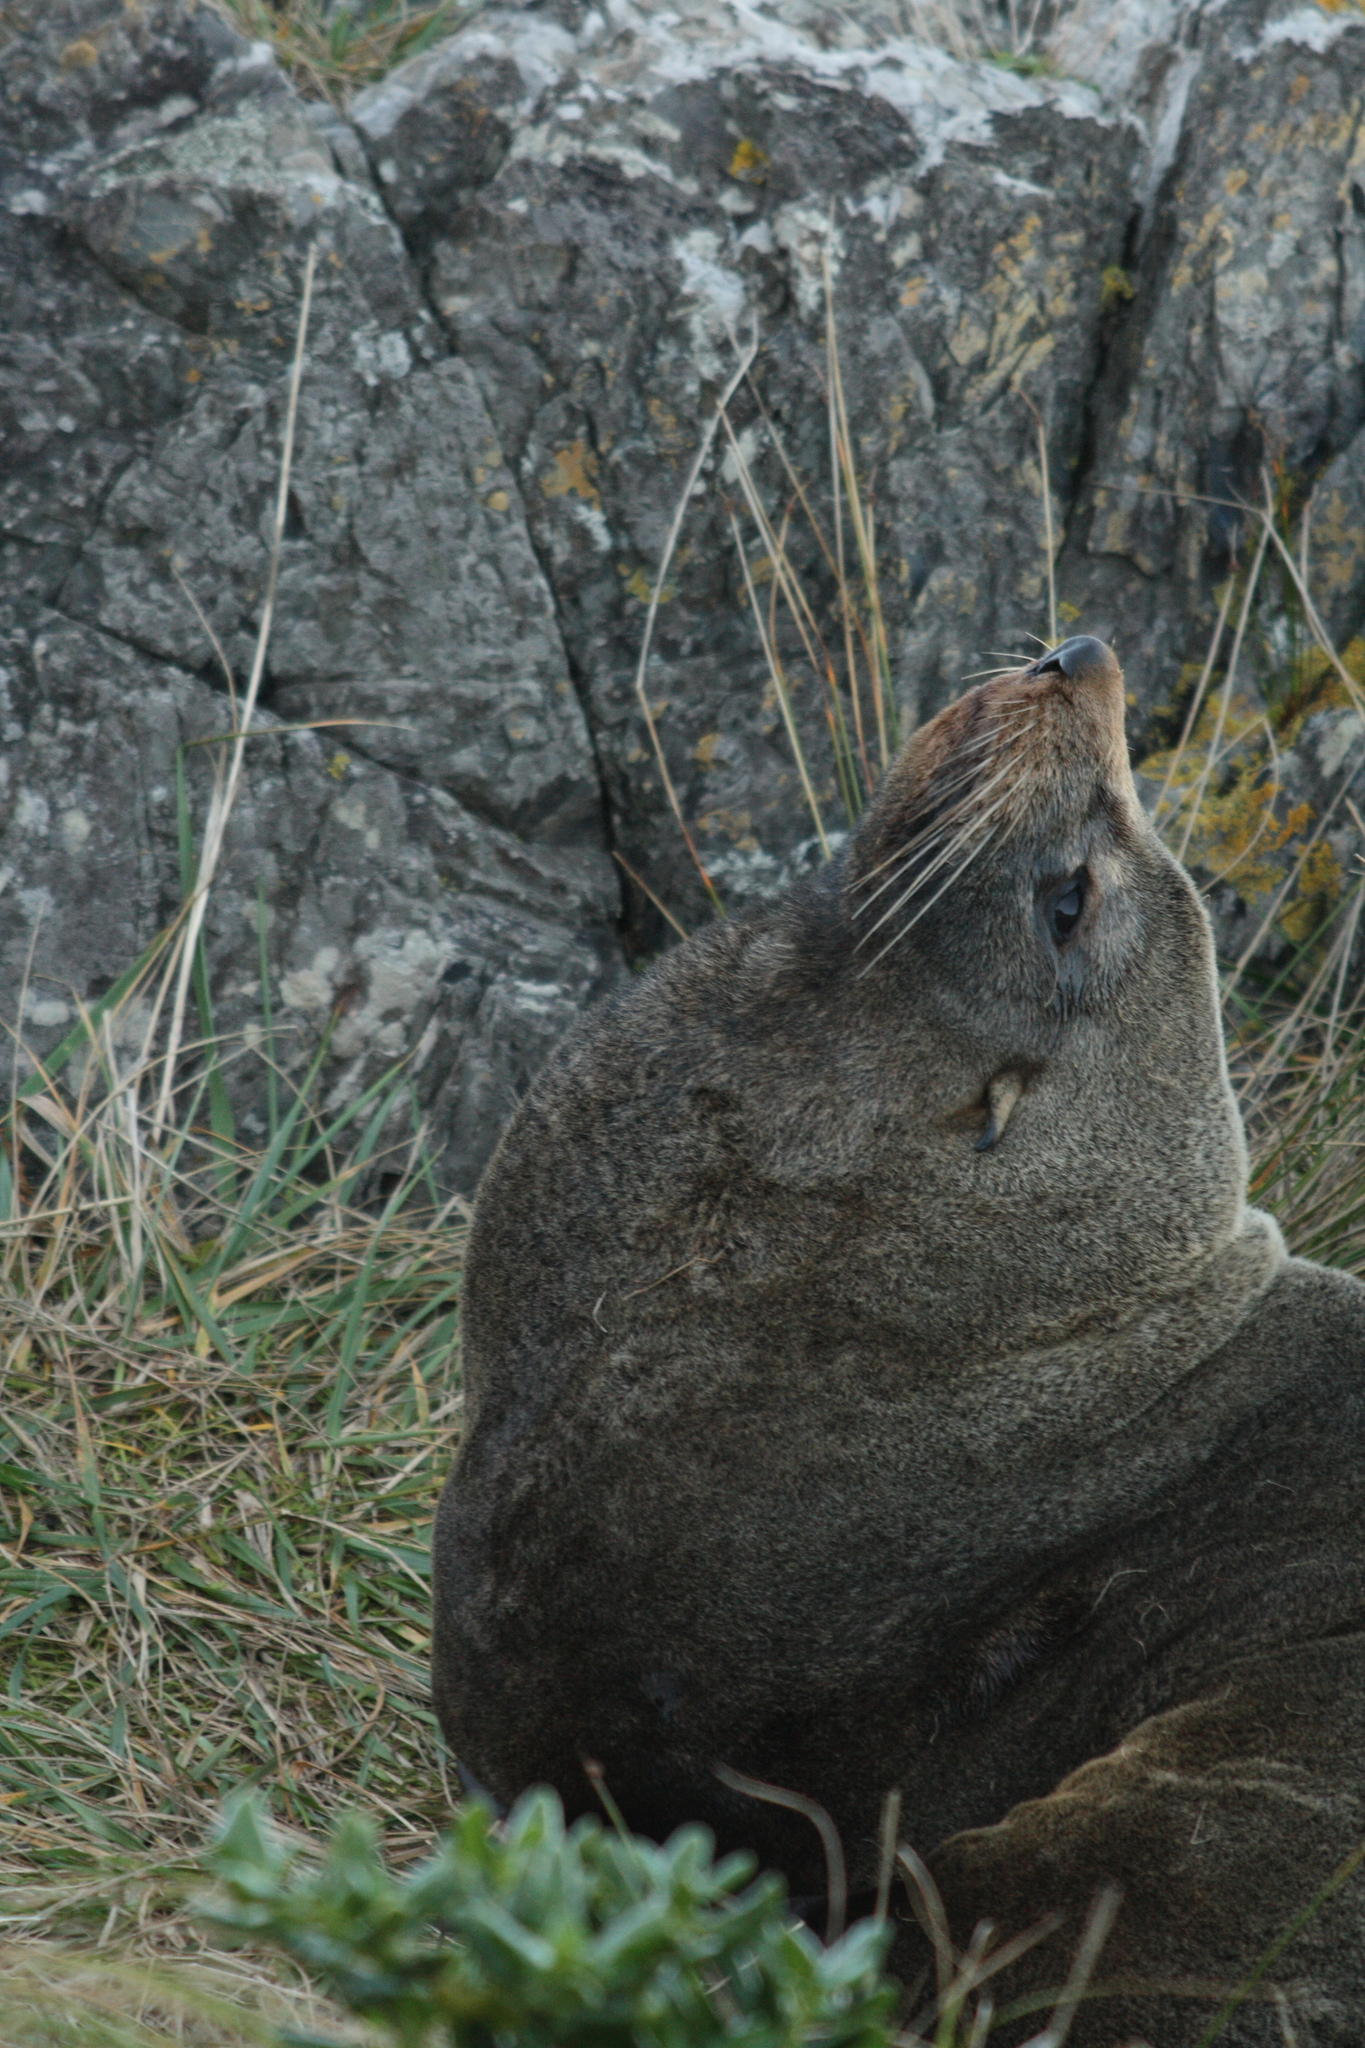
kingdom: Animalia
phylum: Chordata
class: Mammalia
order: Carnivora
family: Otariidae
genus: Arctocephalus
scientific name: Arctocephalus forsteri
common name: New zealand fur seal
